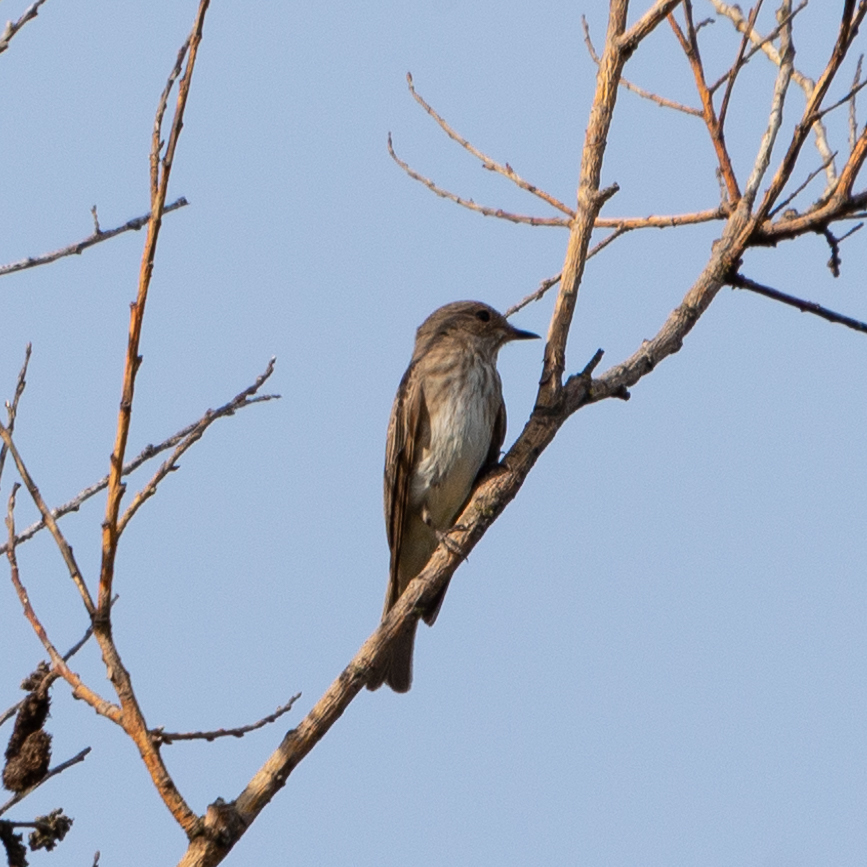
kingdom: Animalia
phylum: Chordata
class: Aves
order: Passeriformes
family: Muscicapidae
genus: Muscicapa
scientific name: Muscicapa striata
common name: Spotted flycatcher
